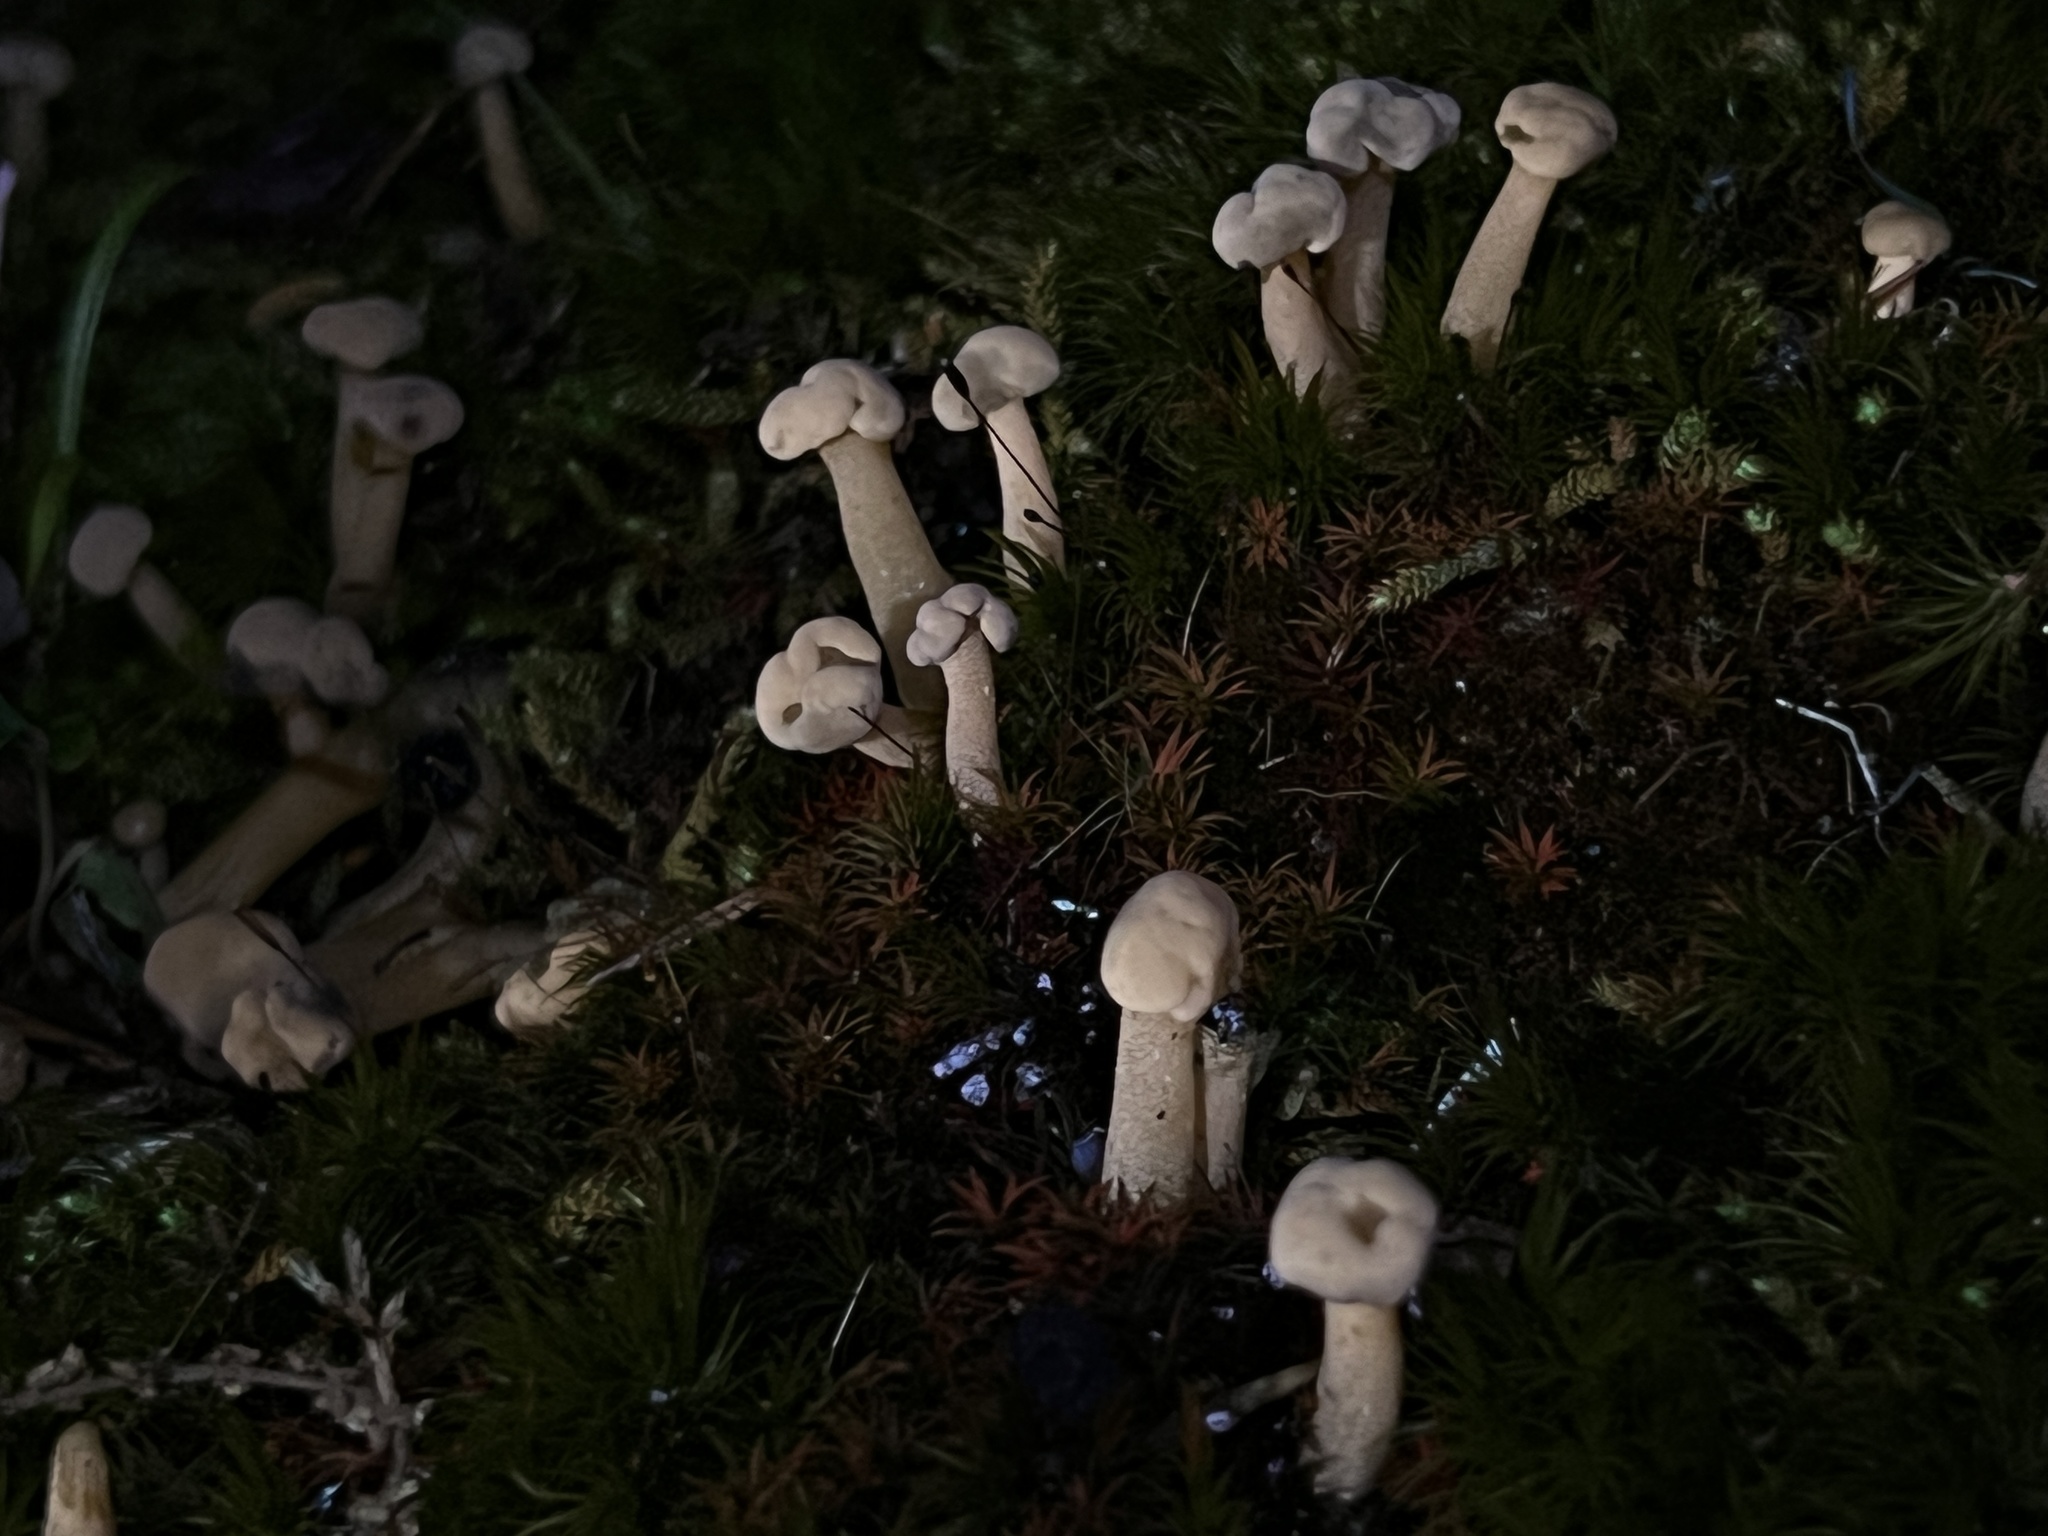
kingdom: Fungi
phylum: Ascomycota
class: Leotiomycetes
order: Leotiales
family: Leotiaceae
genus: Leotia
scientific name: Leotia lubrica
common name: Jellybaby
